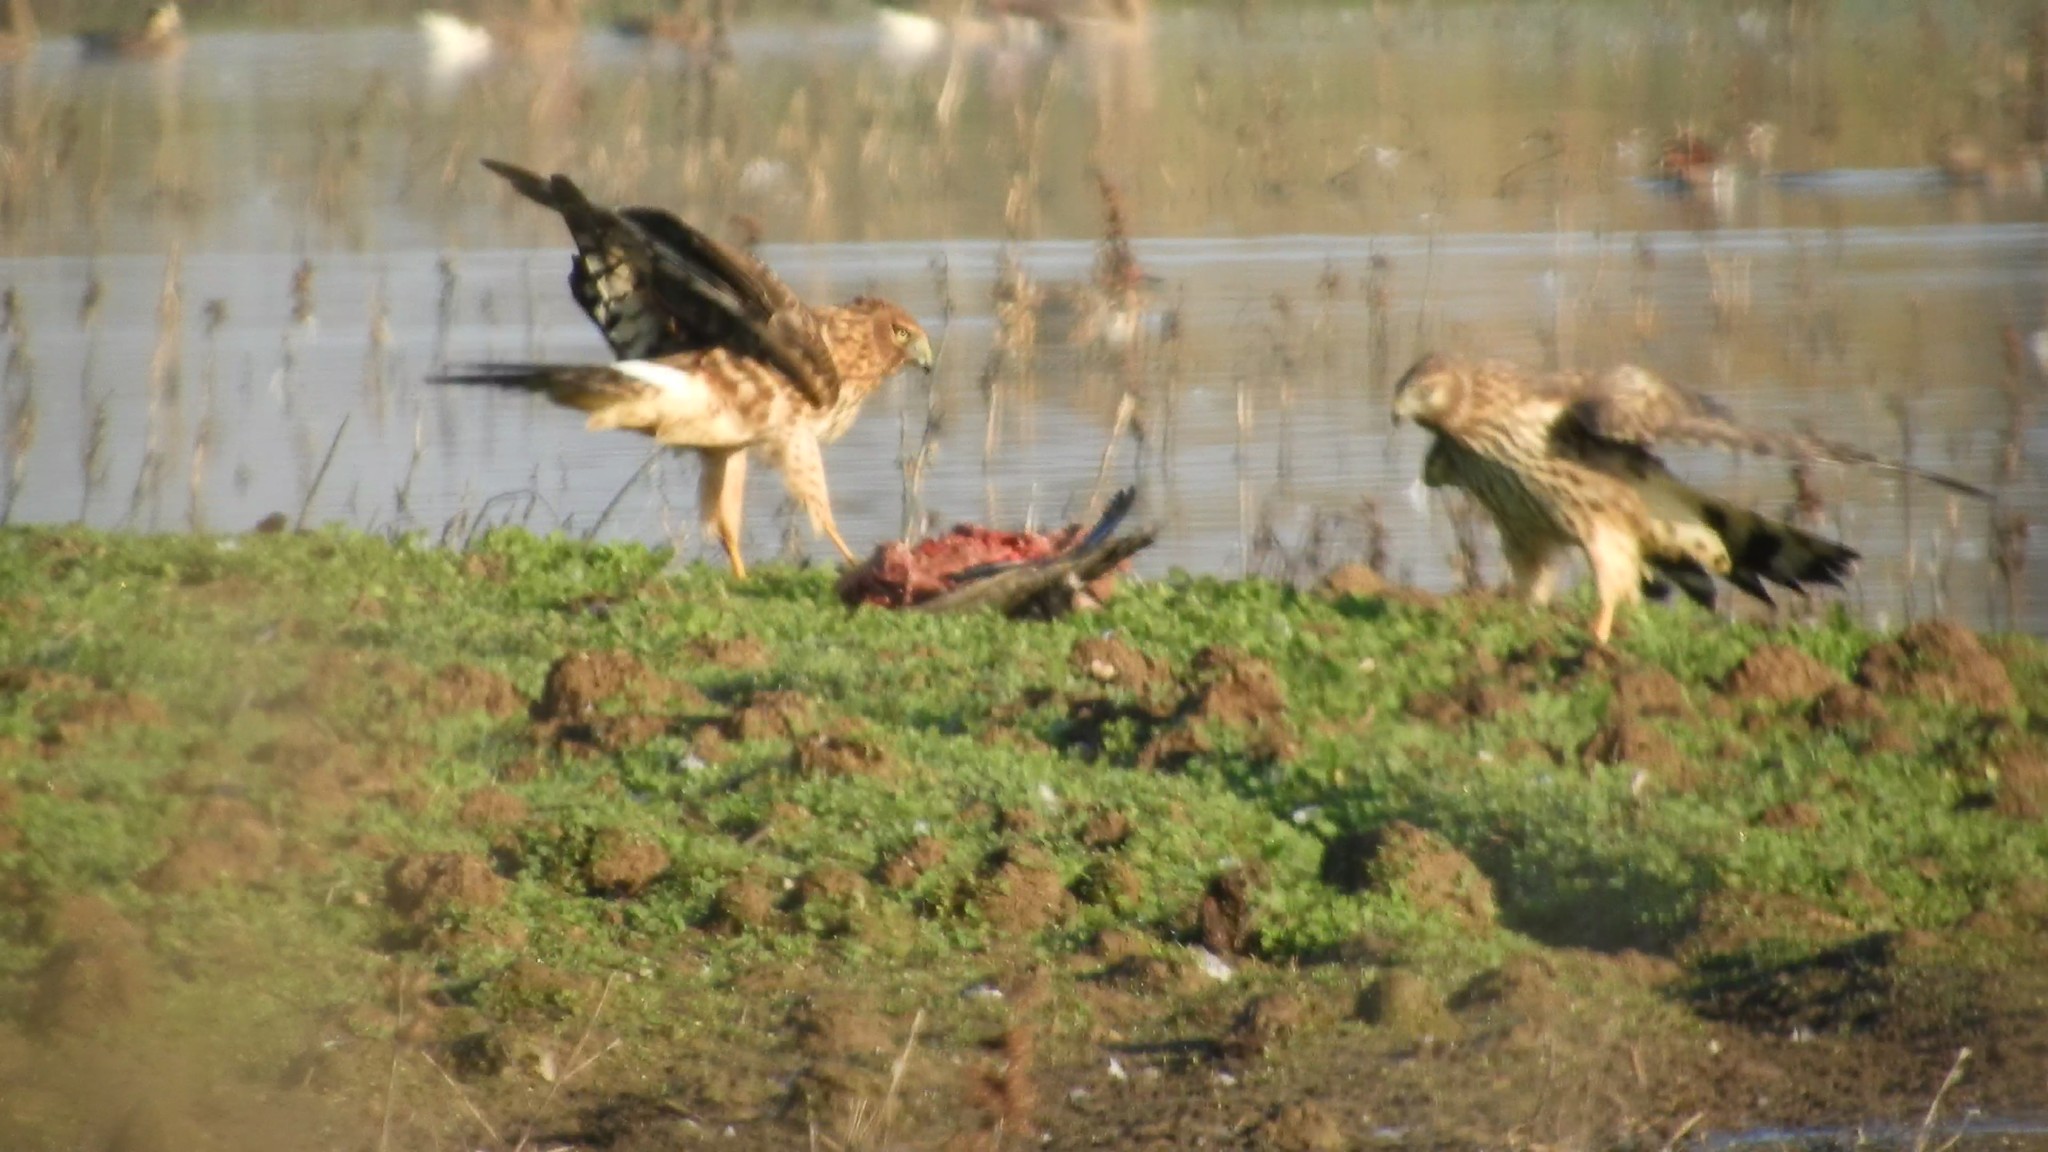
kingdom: Animalia
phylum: Chordata
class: Aves
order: Accipitriformes
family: Accipitridae
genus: Circus
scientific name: Circus cyaneus
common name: Hen harrier
